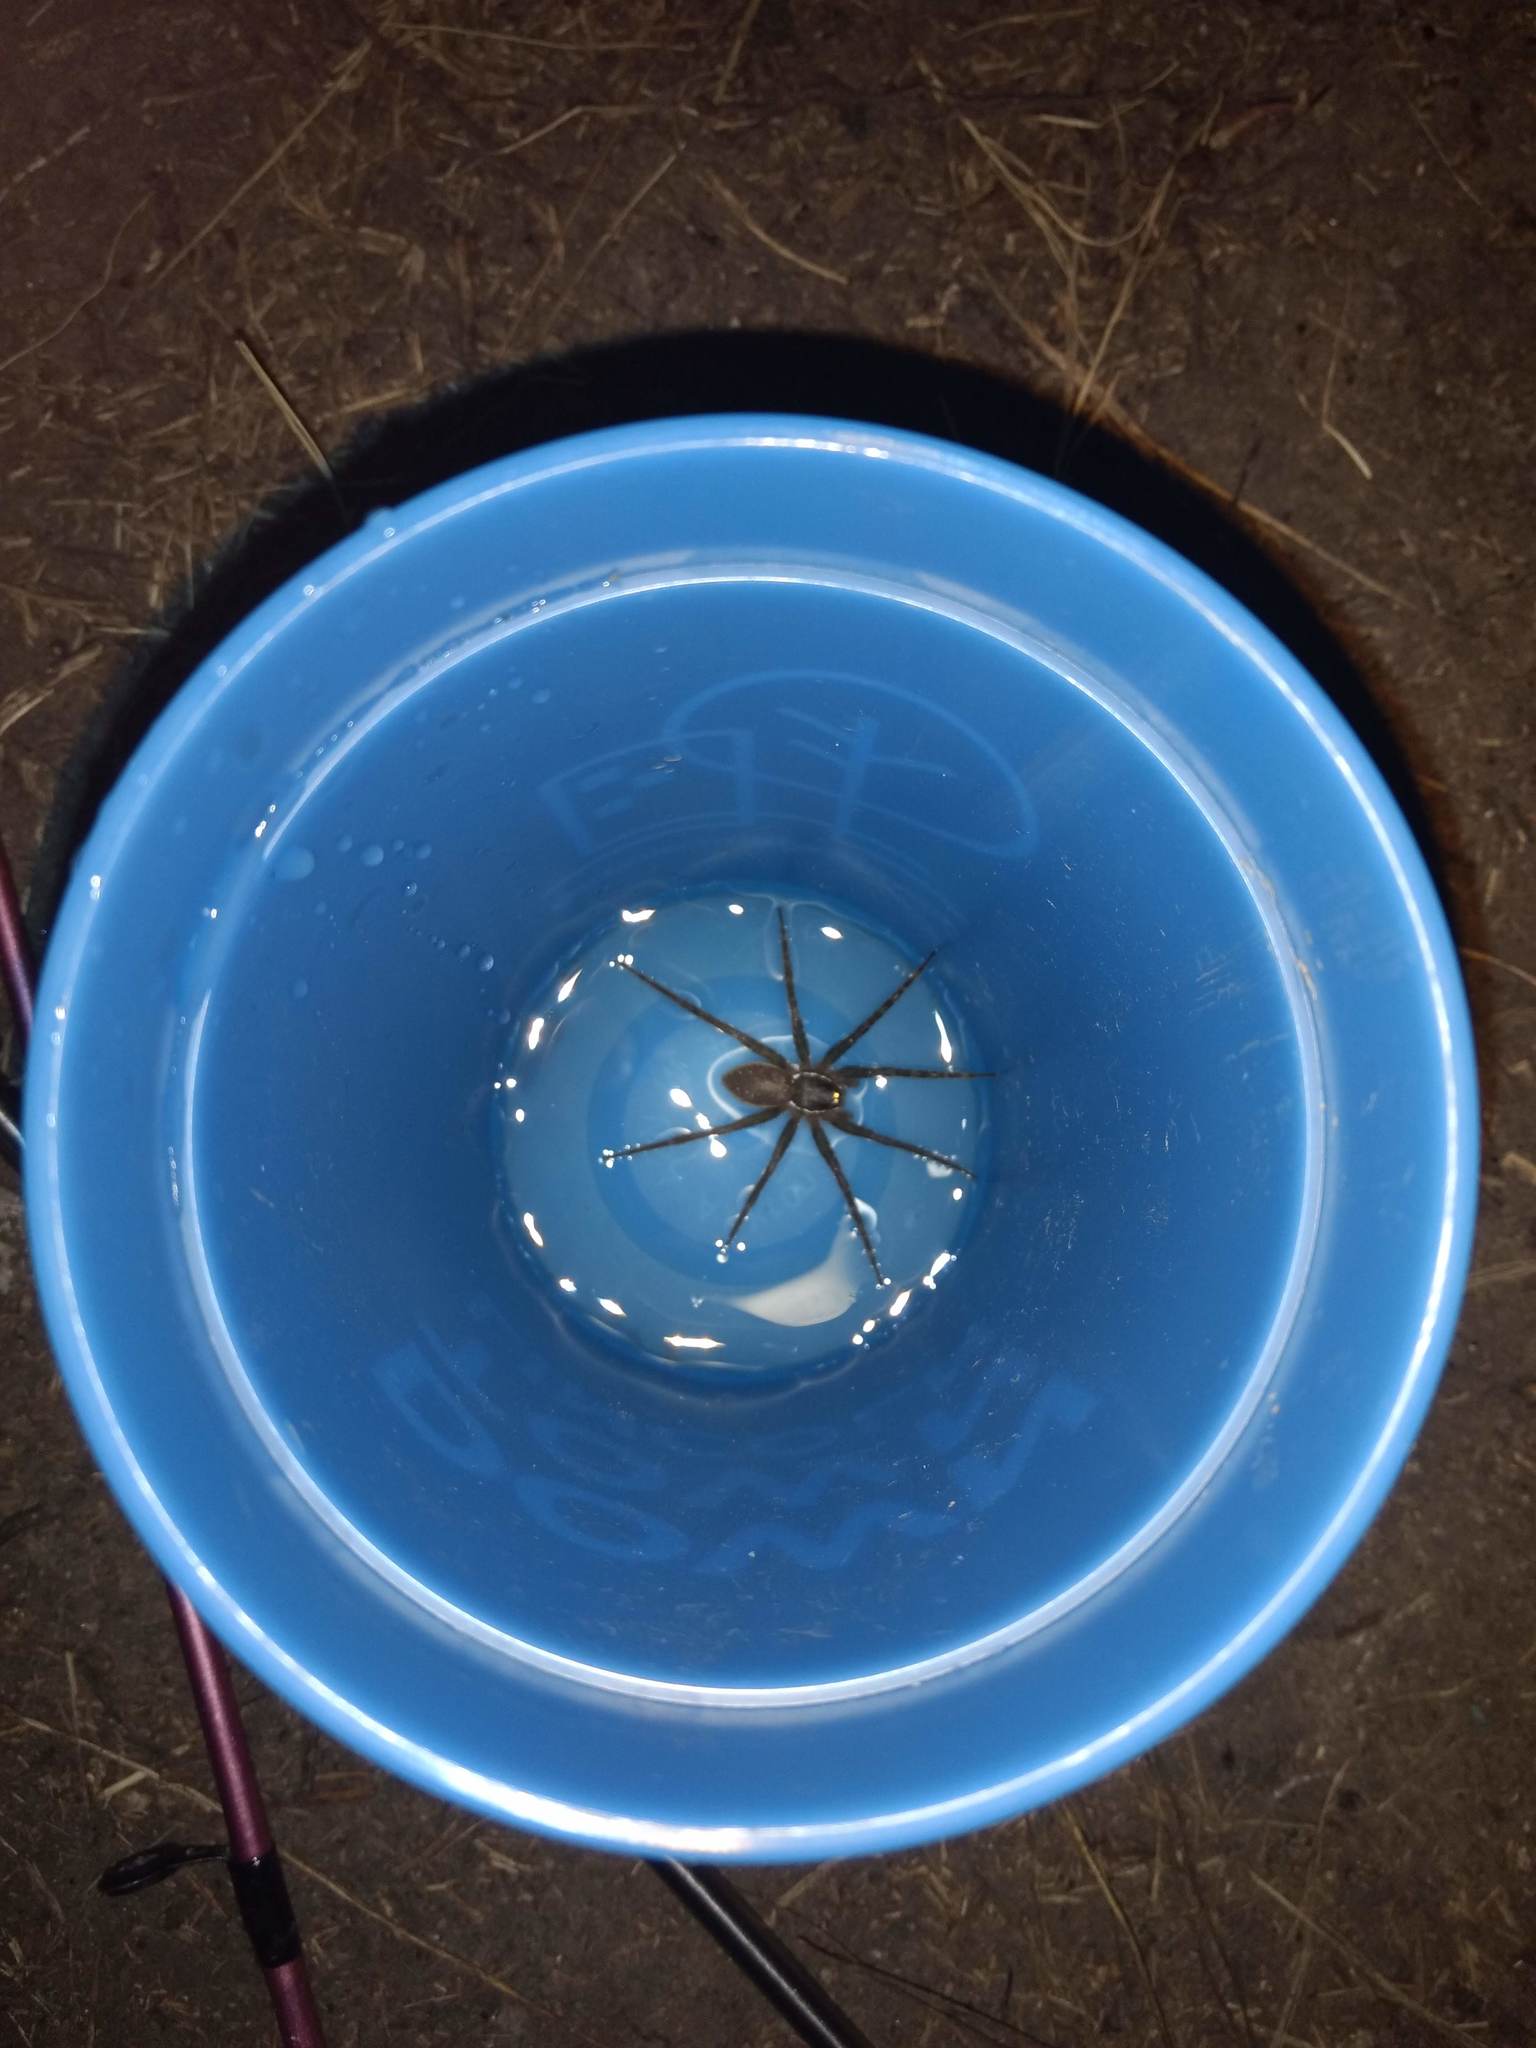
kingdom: Animalia
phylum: Arthropoda
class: Arachnida
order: Araneae
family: Pisauridae
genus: Dolomedes
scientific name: Dolomedes triton
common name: Six-spotted fishing spider
